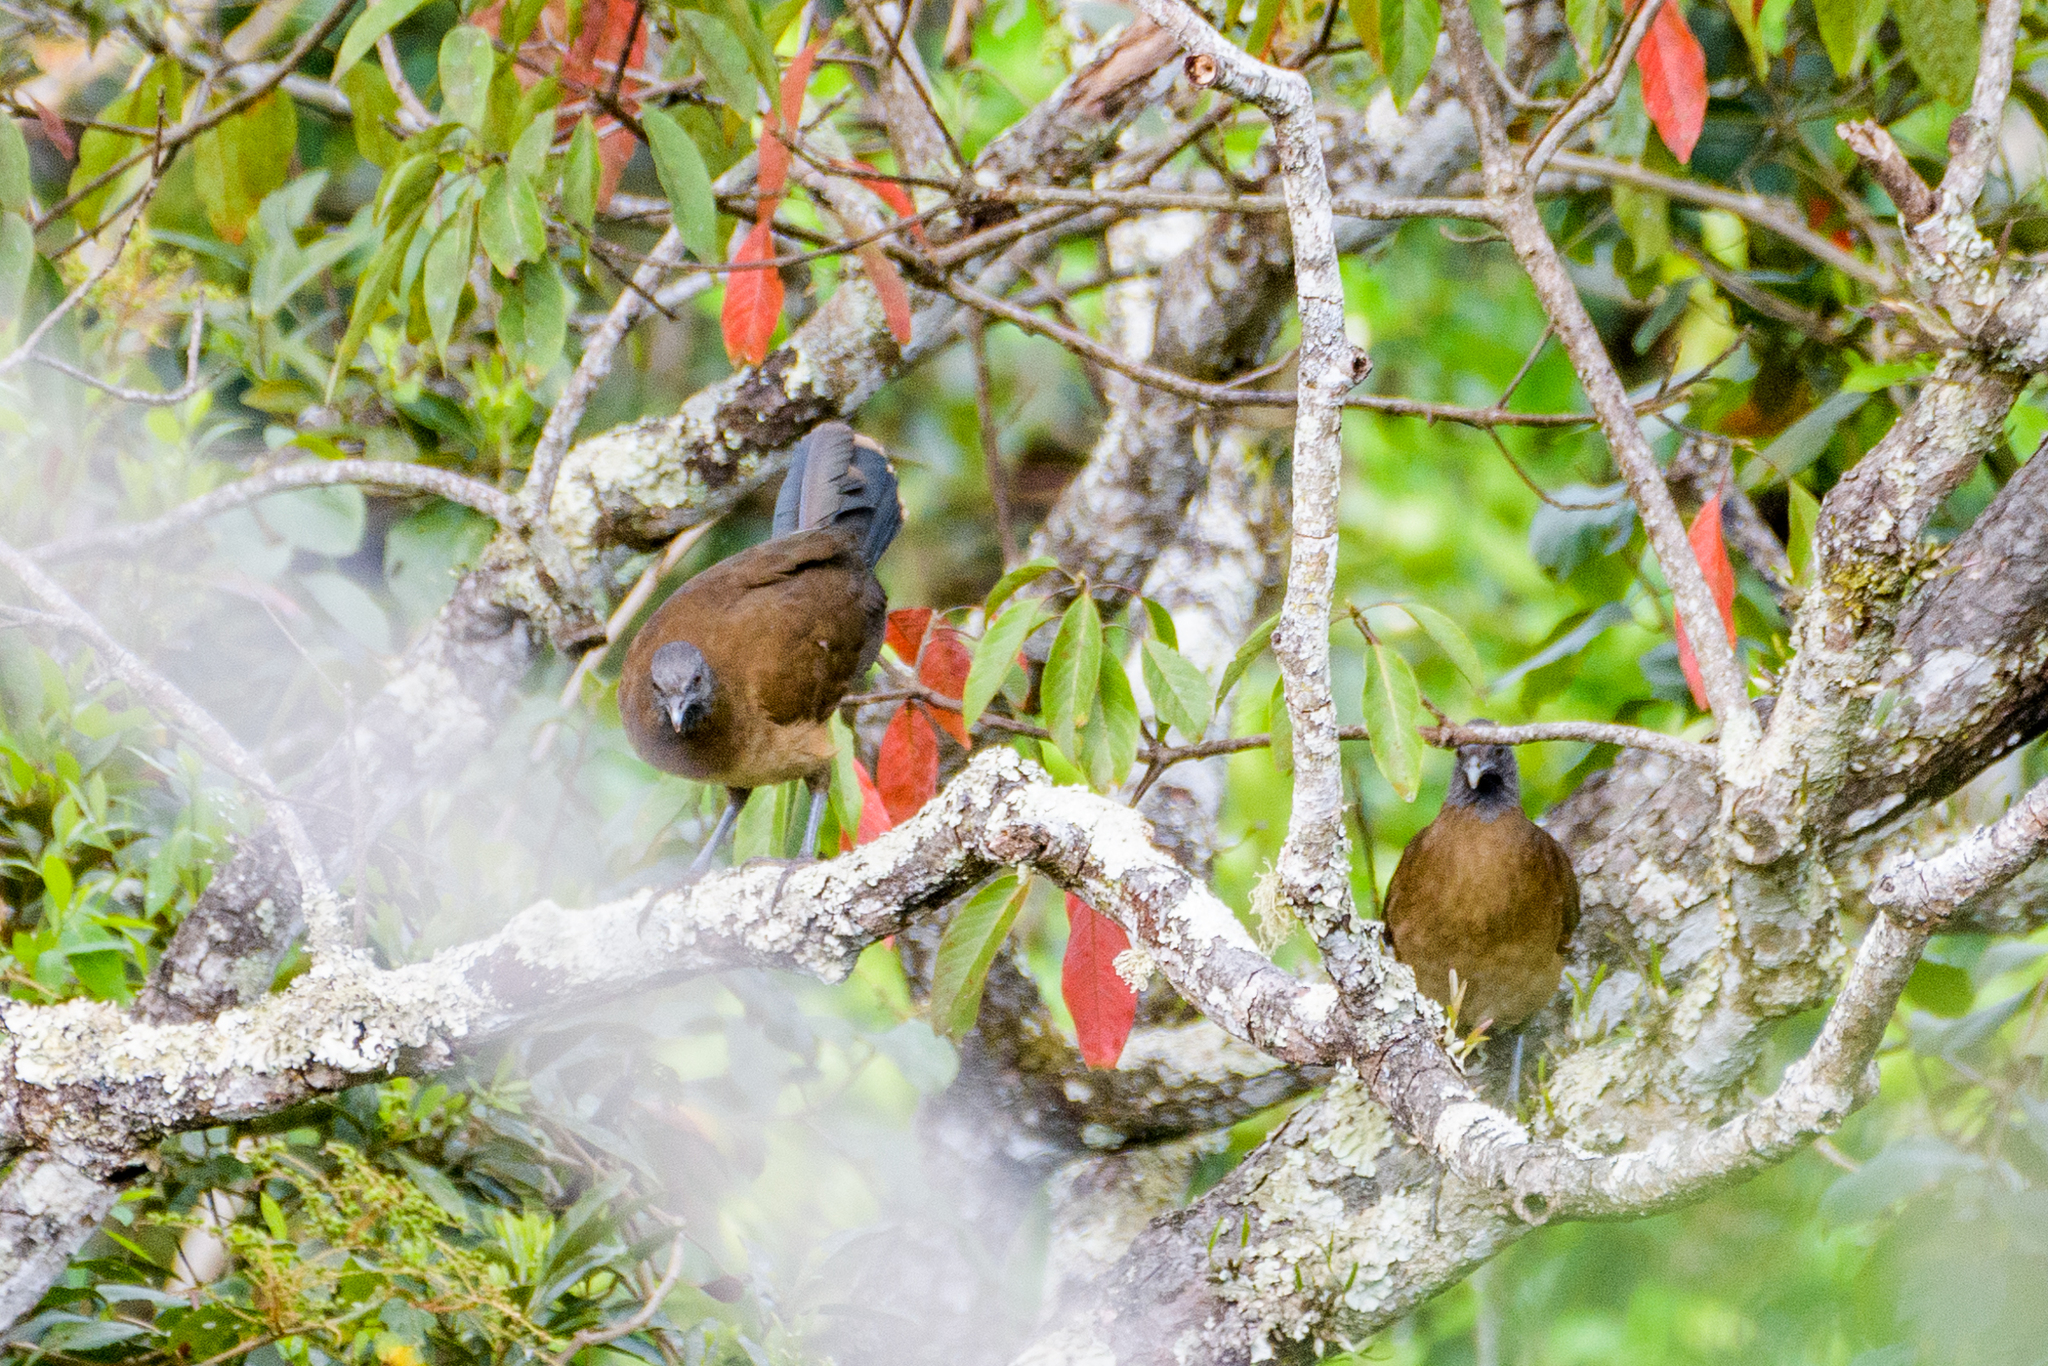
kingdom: Animalia
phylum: Chordata
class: Aves
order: Galliformes
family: Cracidae
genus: Ortalis
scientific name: Ortalis cinereiceps
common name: Grey-headed chachalaca
